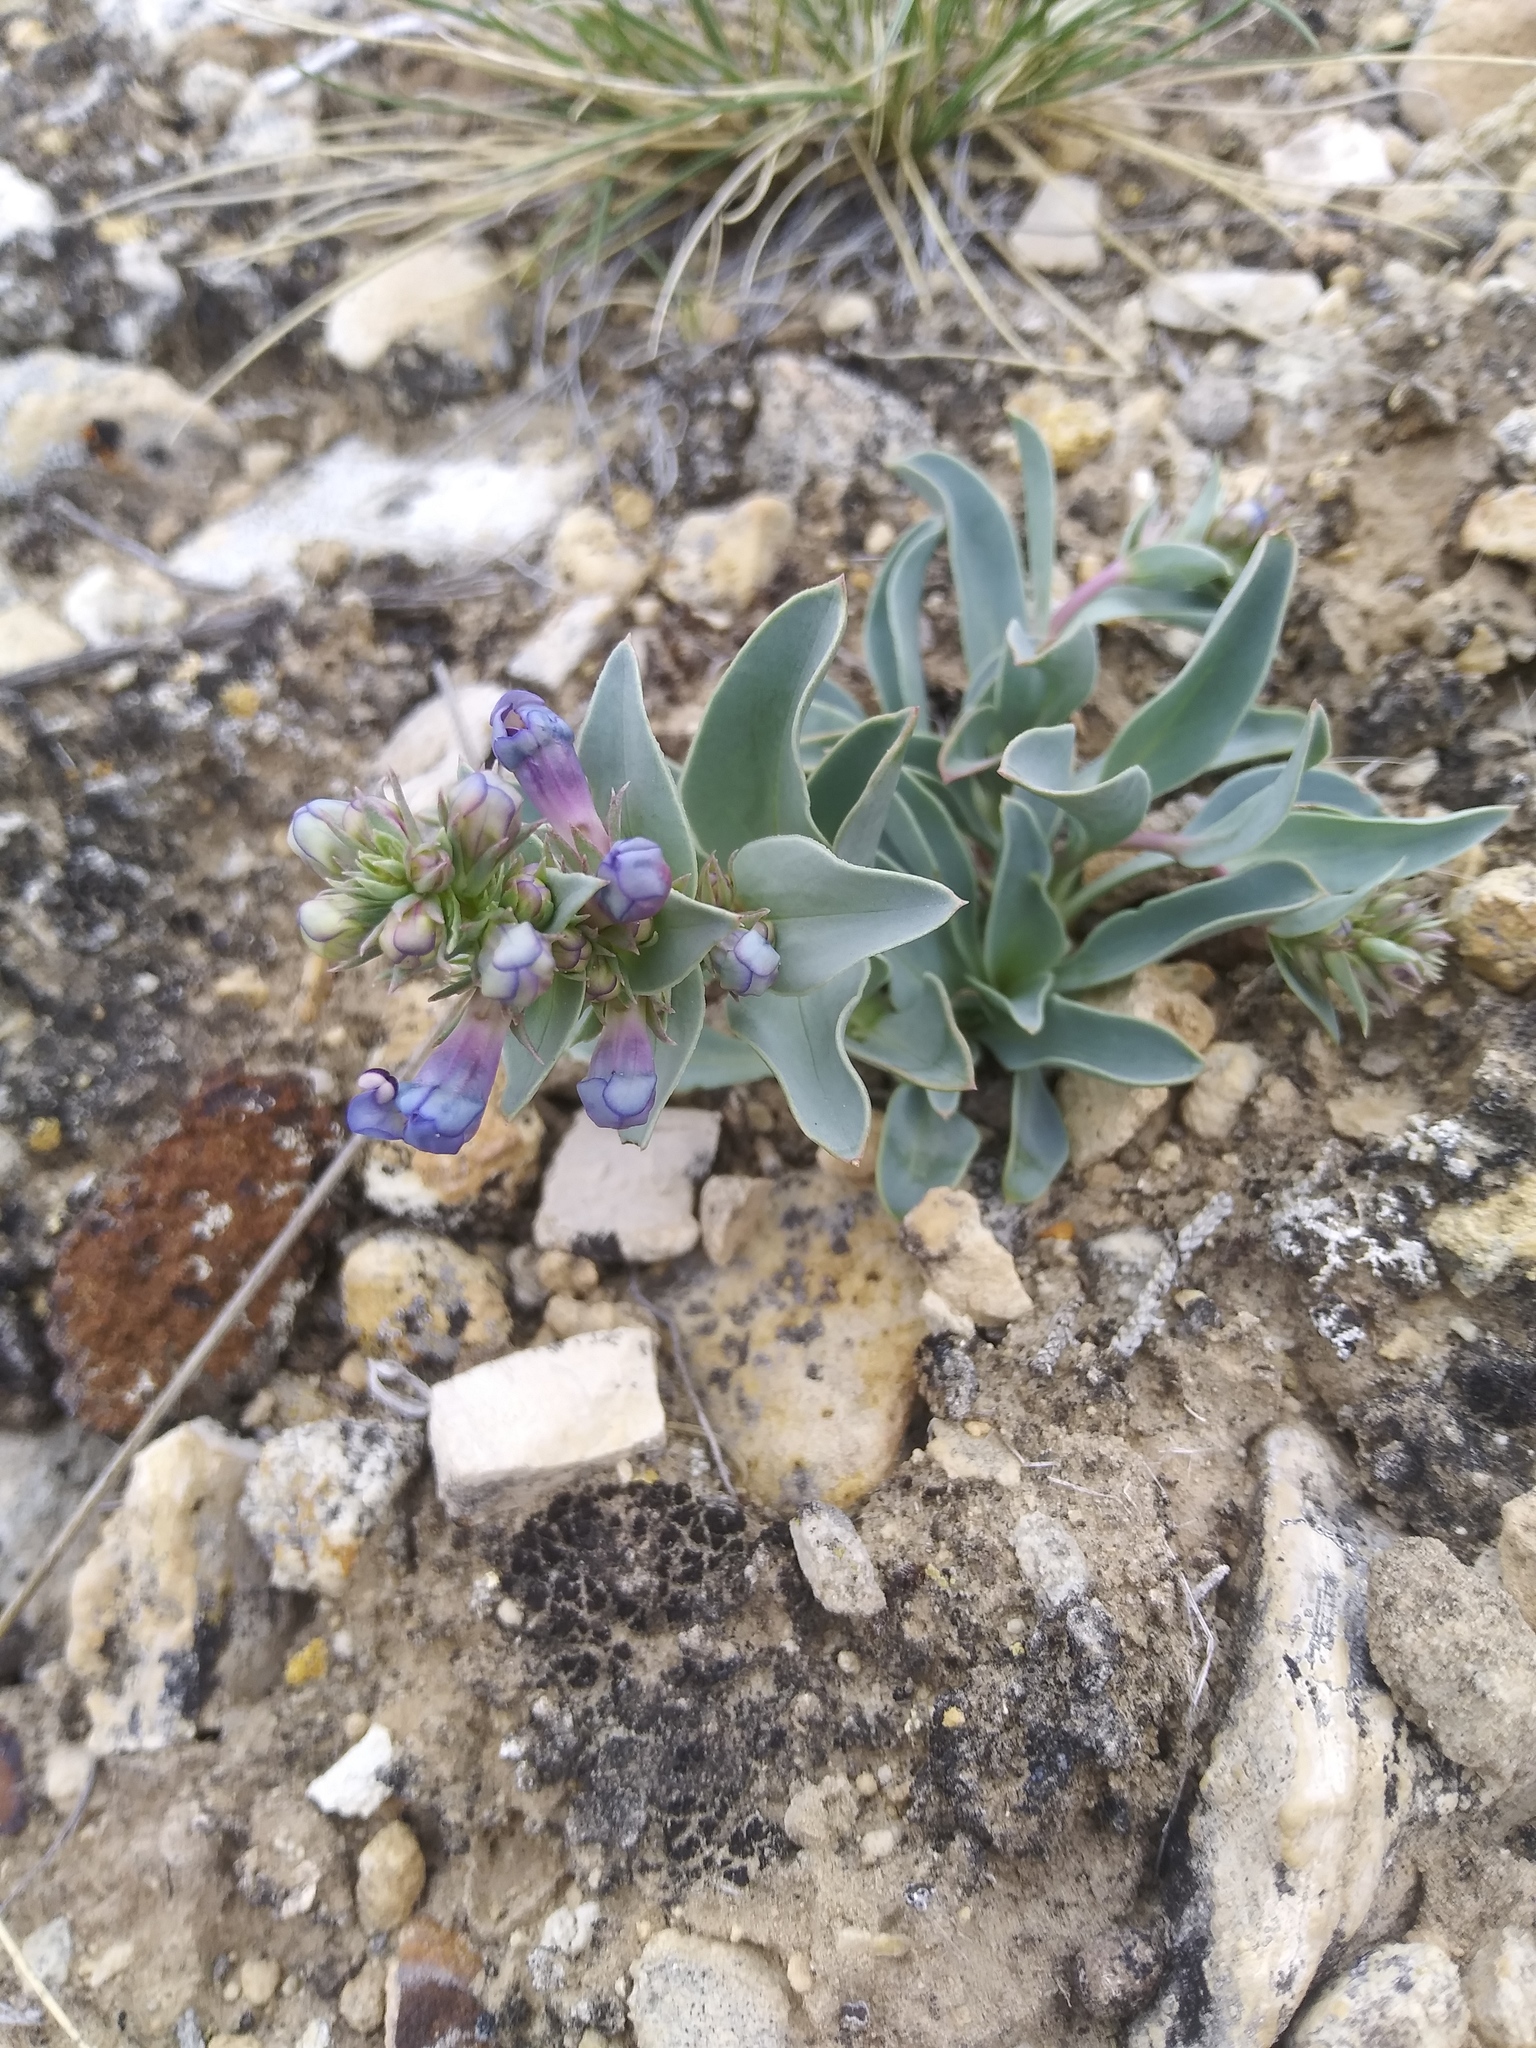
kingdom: Plantae
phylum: Tracheophyta
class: Magnoliopsida
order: Lamiales
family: Plantaginaceae
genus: Penstemon
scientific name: Penstemon nitidus
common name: Shining penstemon
